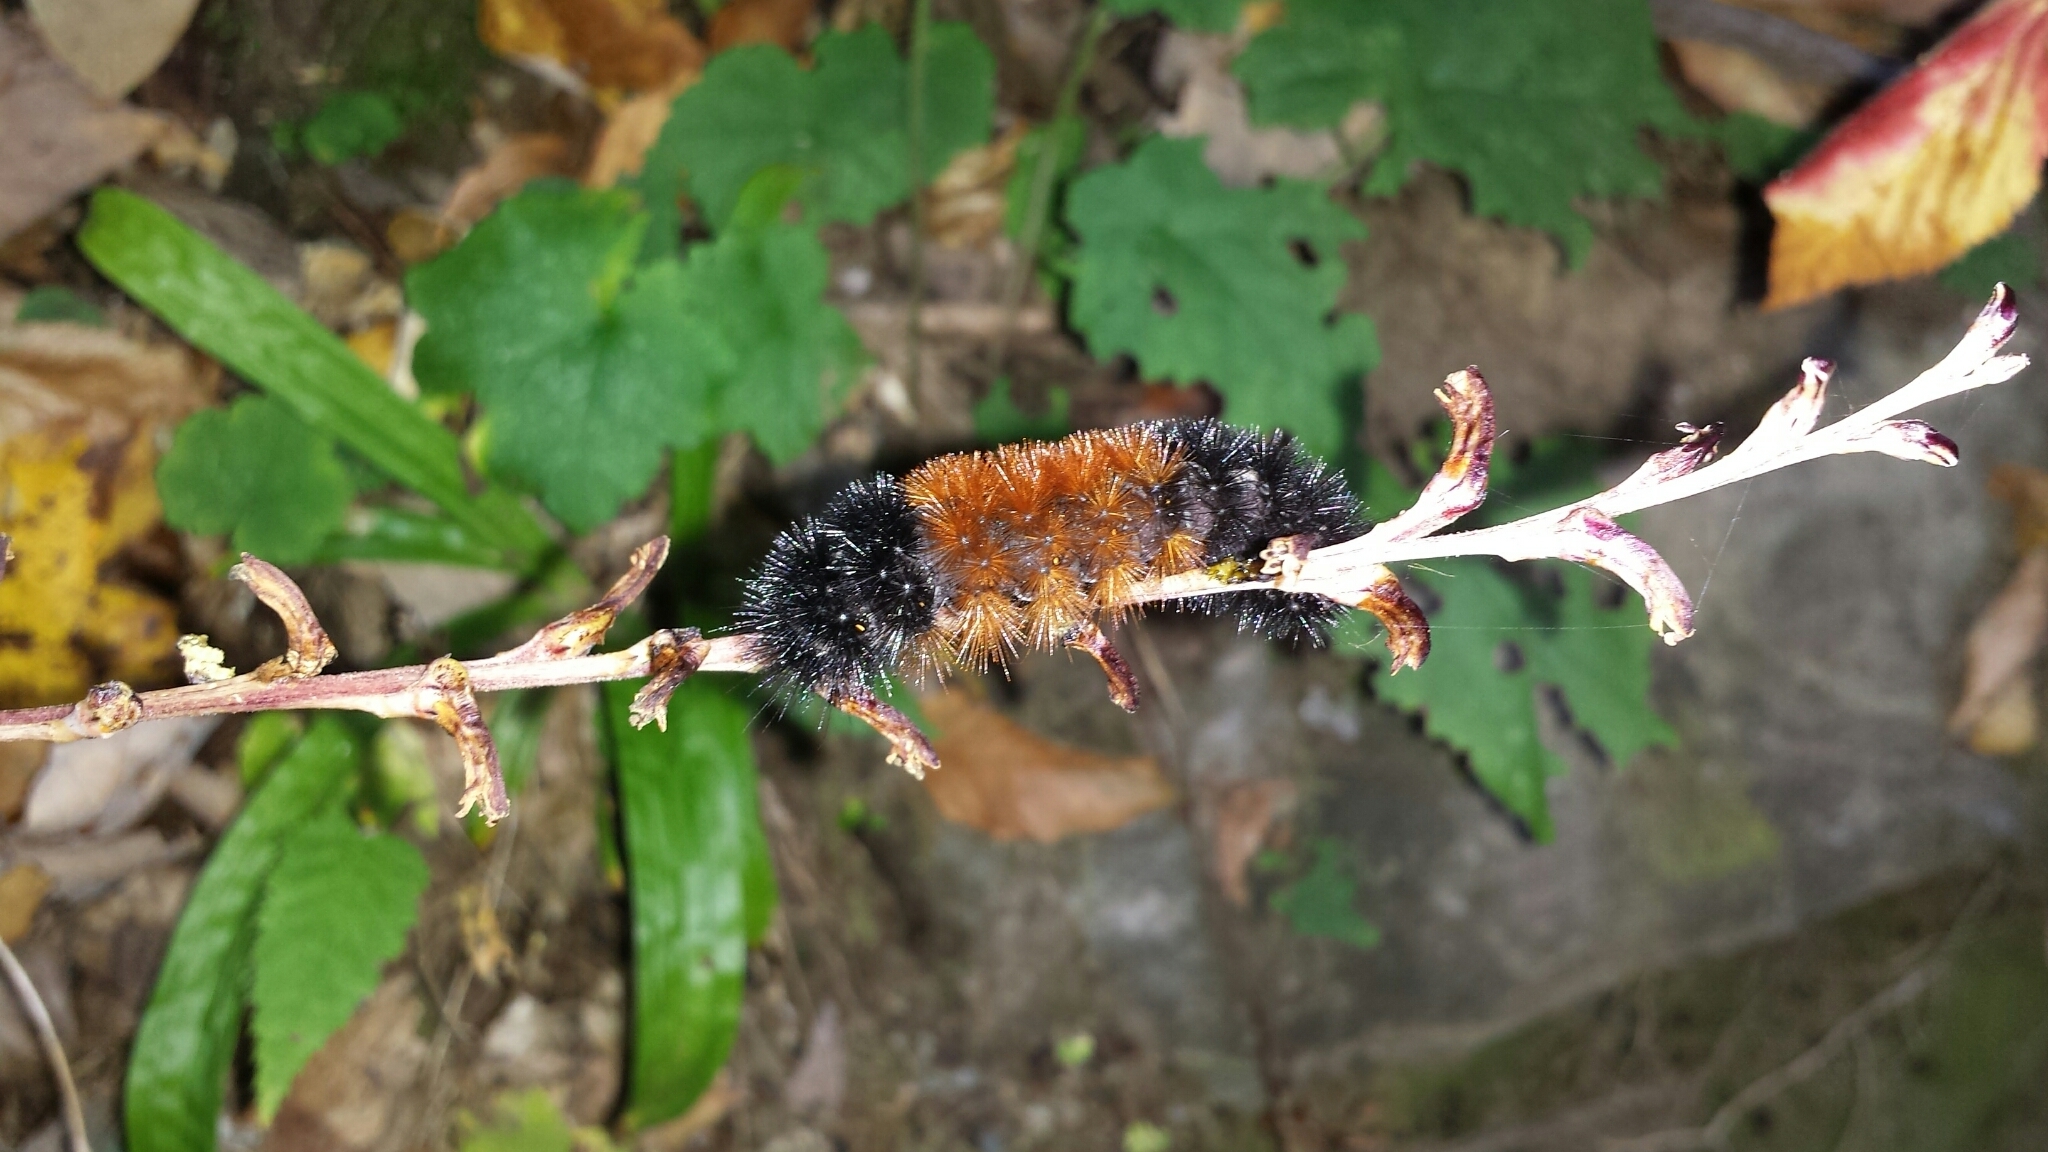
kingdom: Animalia
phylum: Arthropoda
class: Insecta
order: Lepidoptera
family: Erebidae
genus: Pyrrharctia
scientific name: Pyrrharctia isabella
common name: Isabella tiger moth
